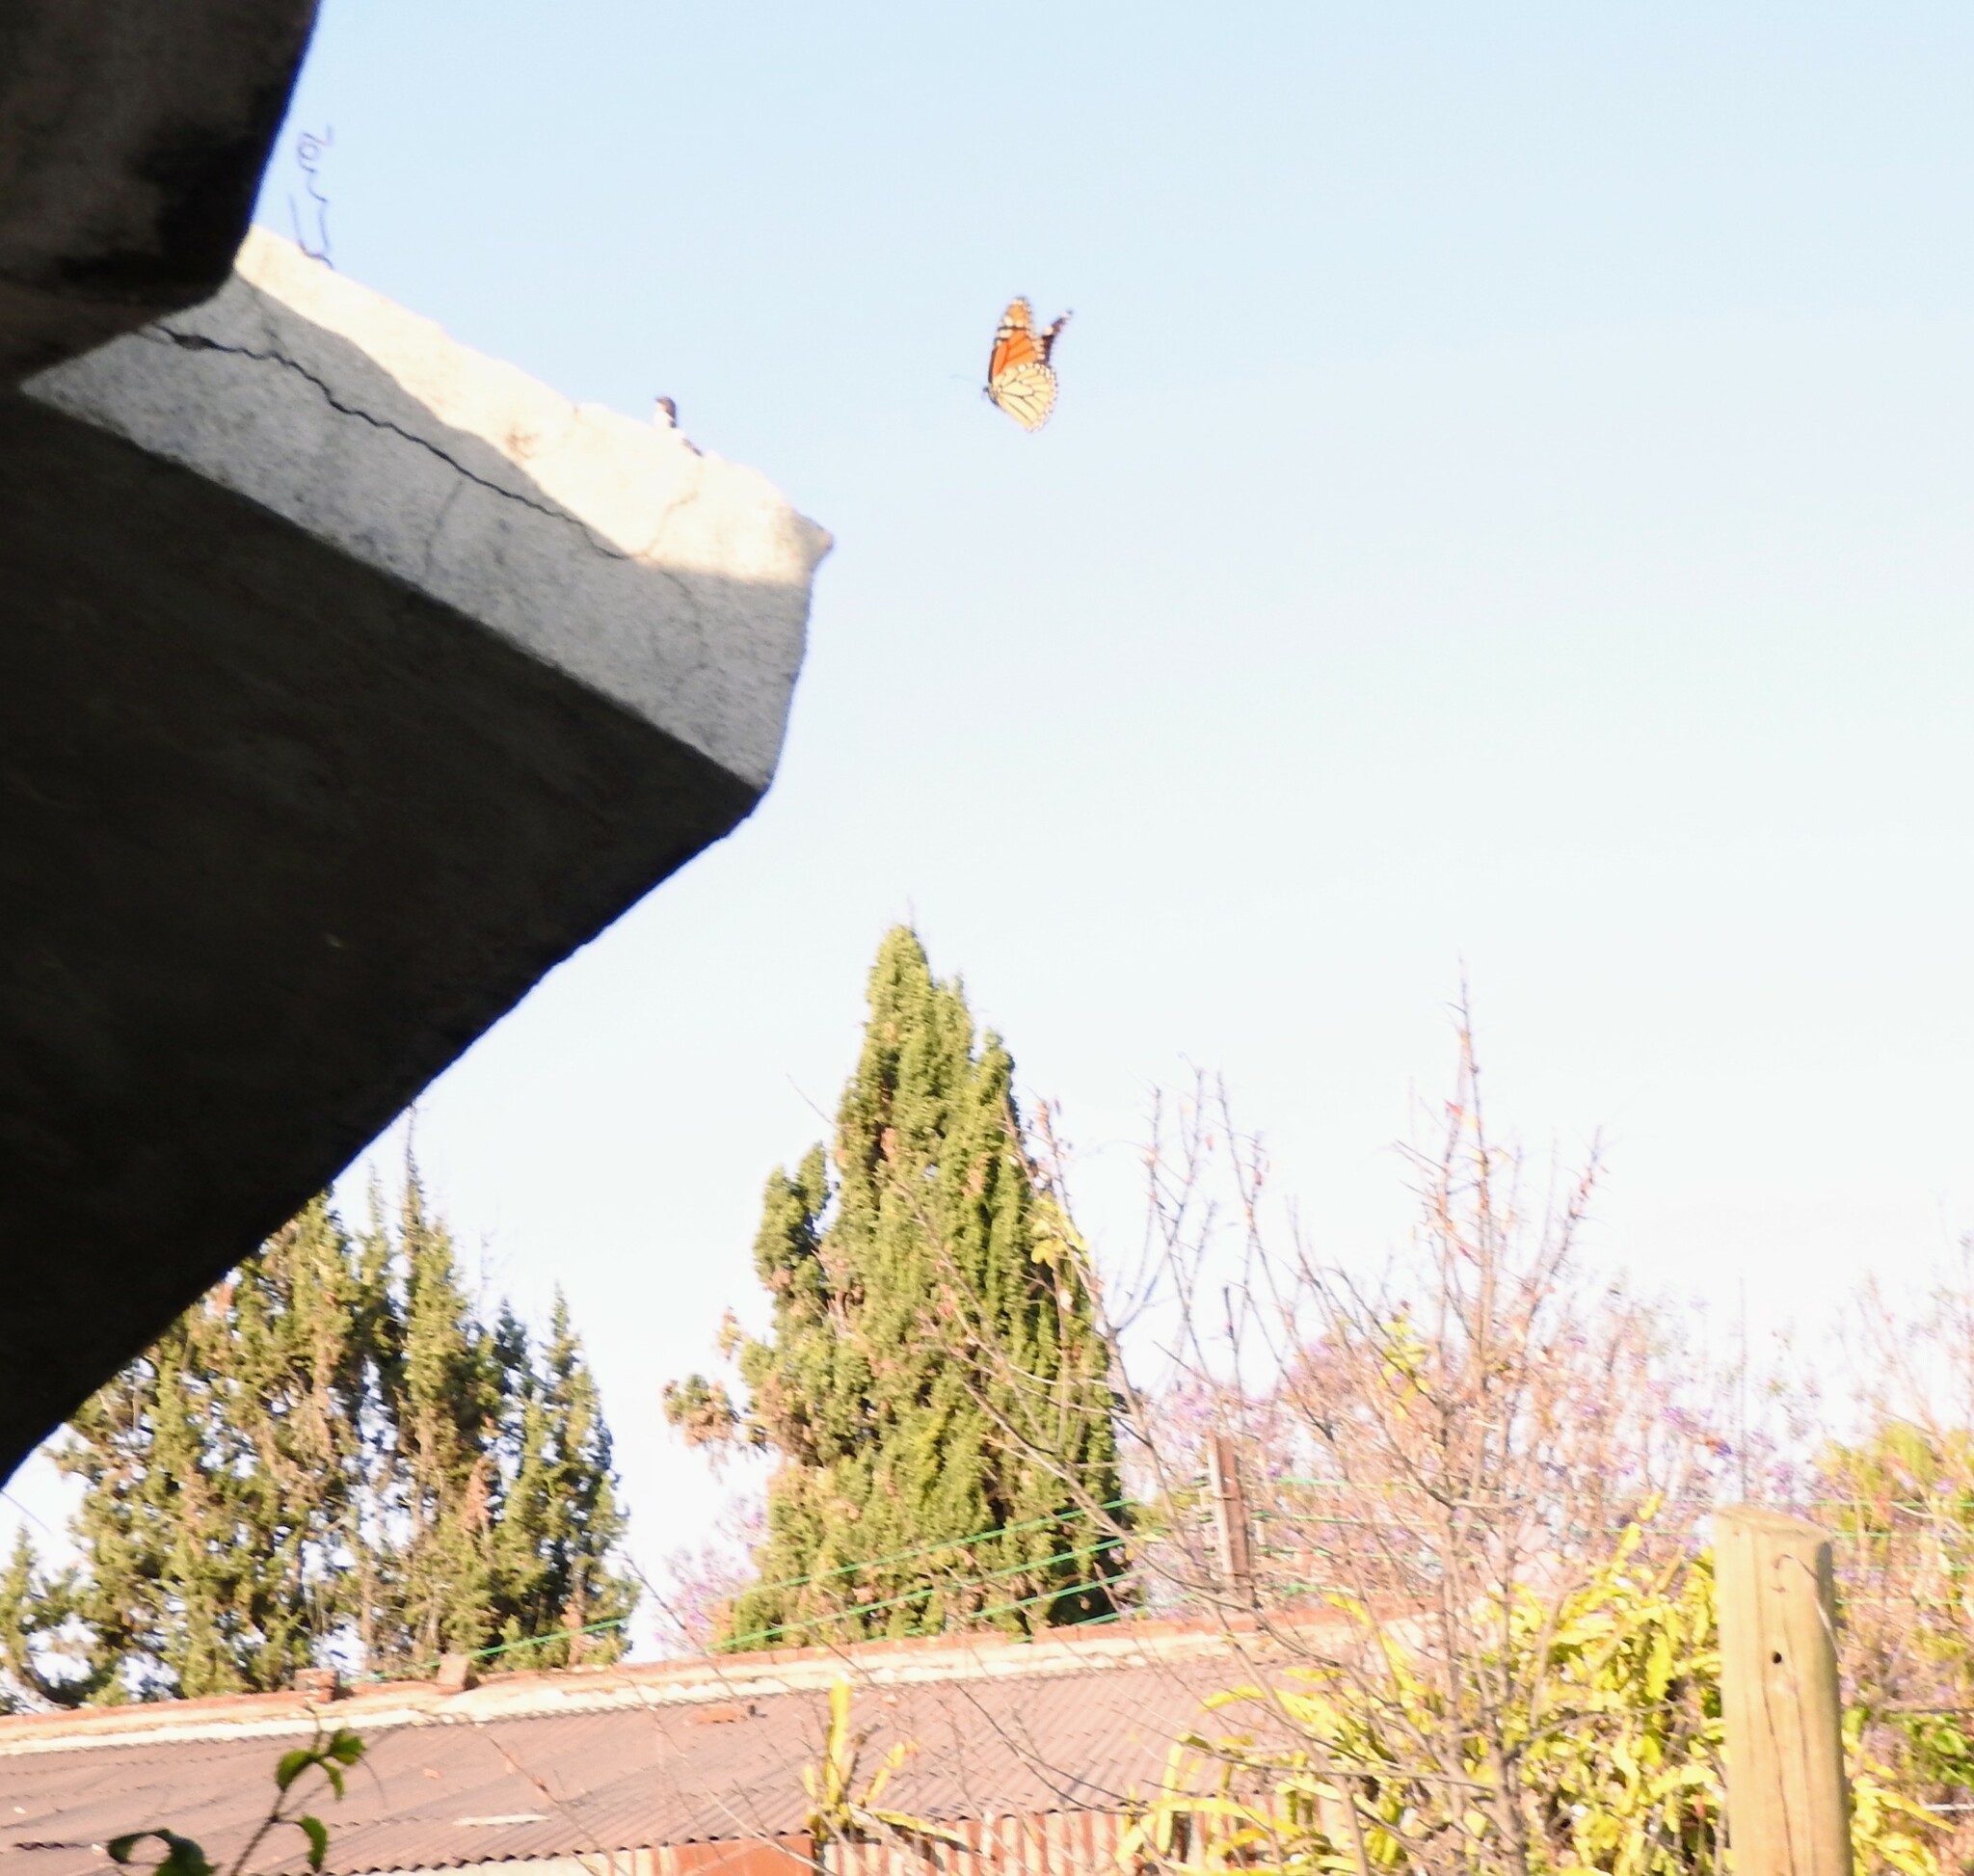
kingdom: Animalia
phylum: Arthropoda
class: Insecta
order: Lepidoptera
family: Nymphalidae
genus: Danaus
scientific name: Danaus plexippus
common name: Monarch
